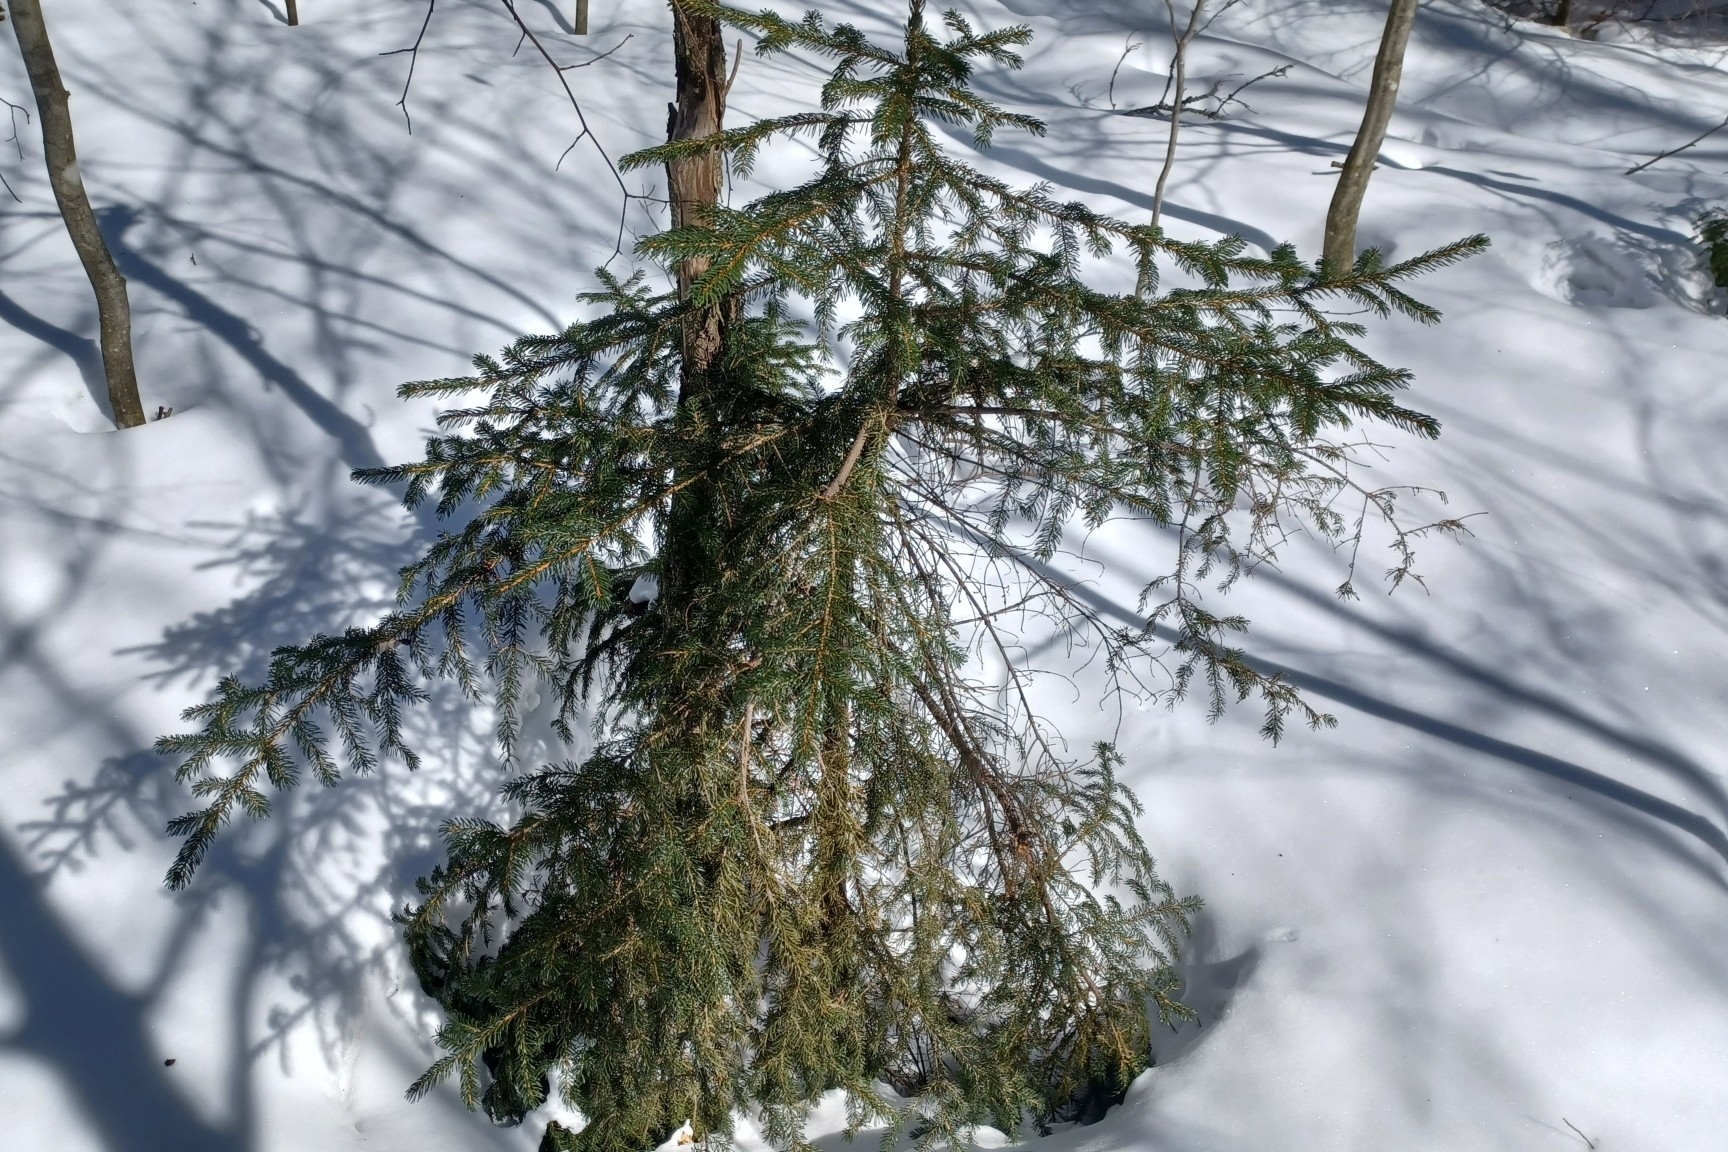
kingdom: Plantae
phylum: Tracheophyta
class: Pinopsida
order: Pinales
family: Pinaceae
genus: Picea
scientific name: Picea rubens
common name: Red spruce
